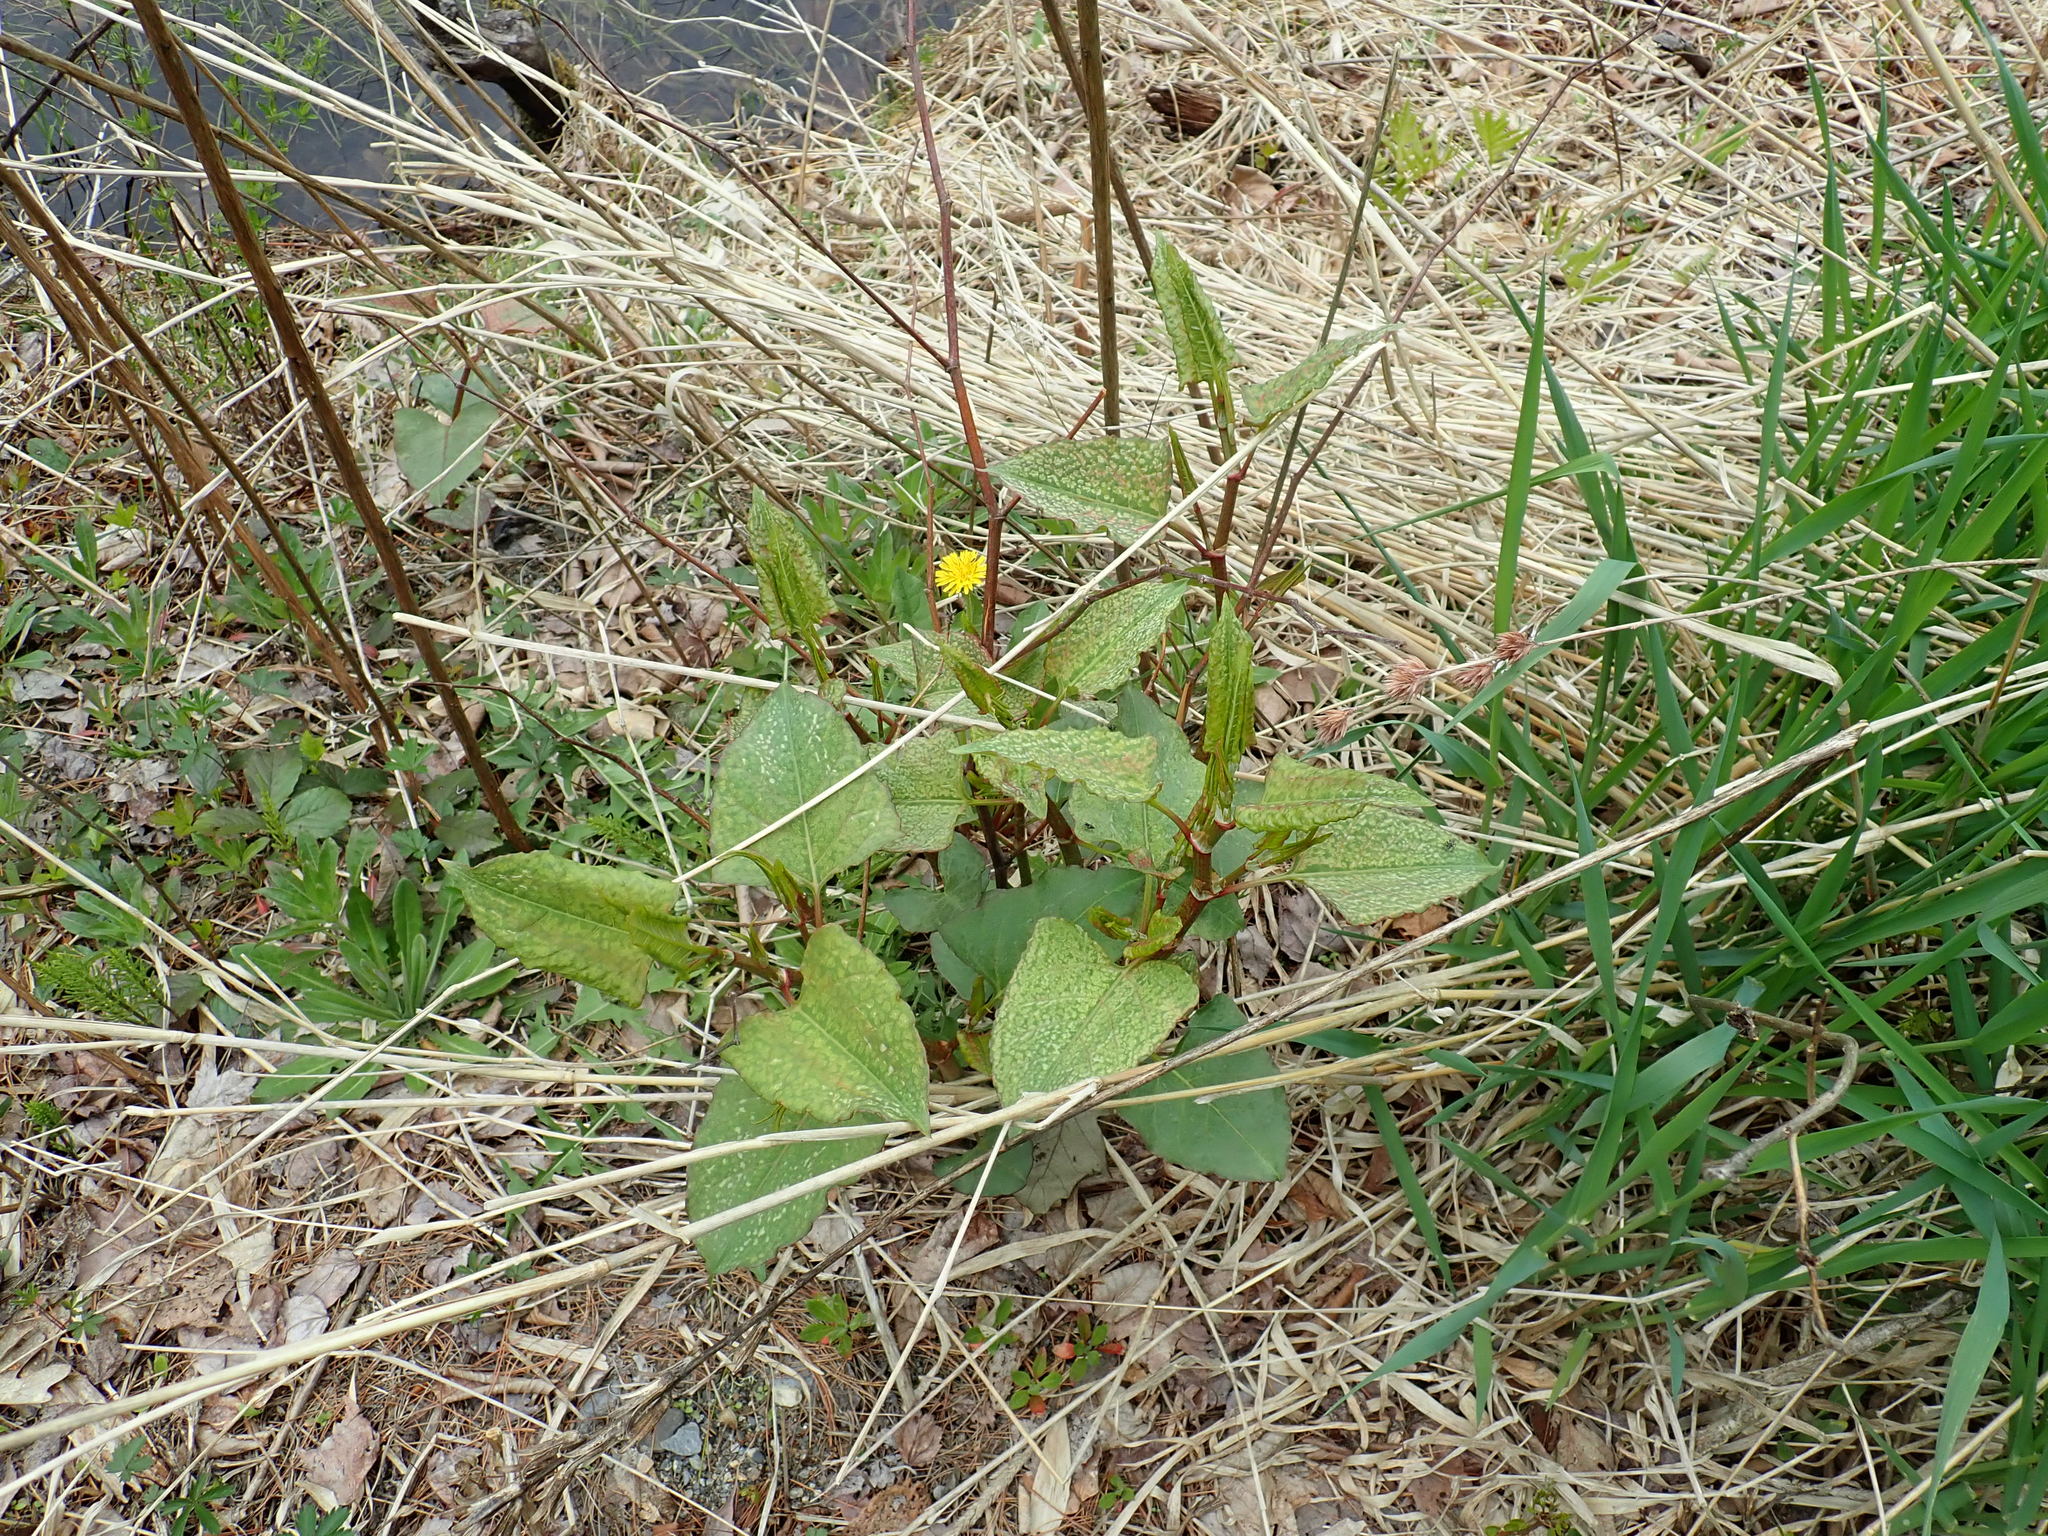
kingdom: Plantae
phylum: Tracheophyta
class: Magnoliopsida
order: Caryophyllales
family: Polygonaceae
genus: Reynoutria
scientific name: Reynoutria japonica
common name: Japanese knotweed
